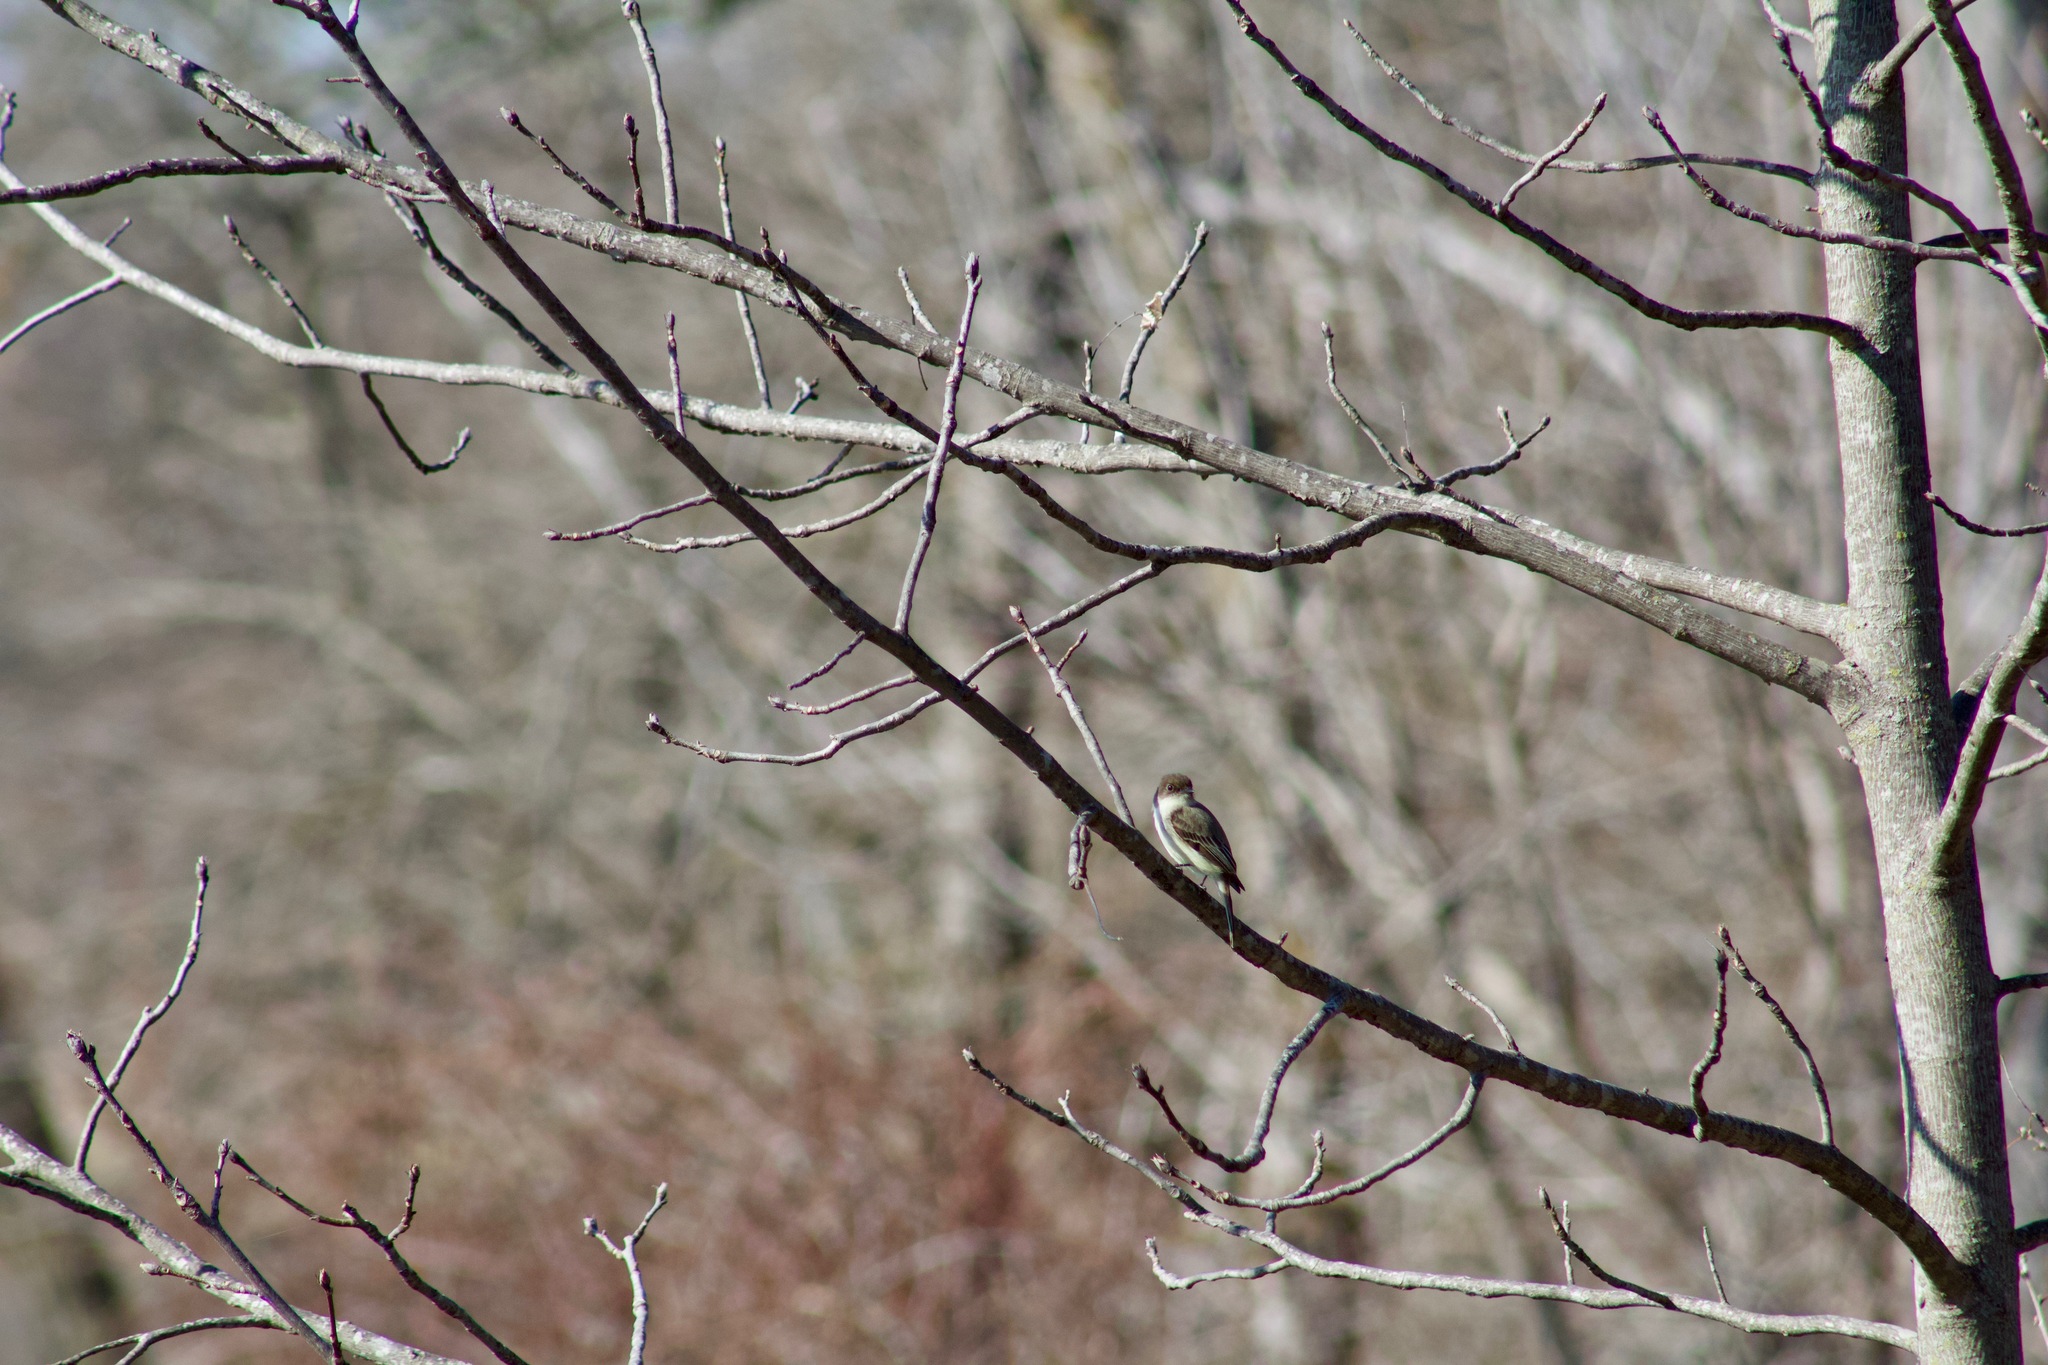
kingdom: Animalia
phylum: Chordata
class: Aves
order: Passeriformes
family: Tyrannidae
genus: Sayornis
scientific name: Sayornis phoebe
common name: Eastern phoebe
